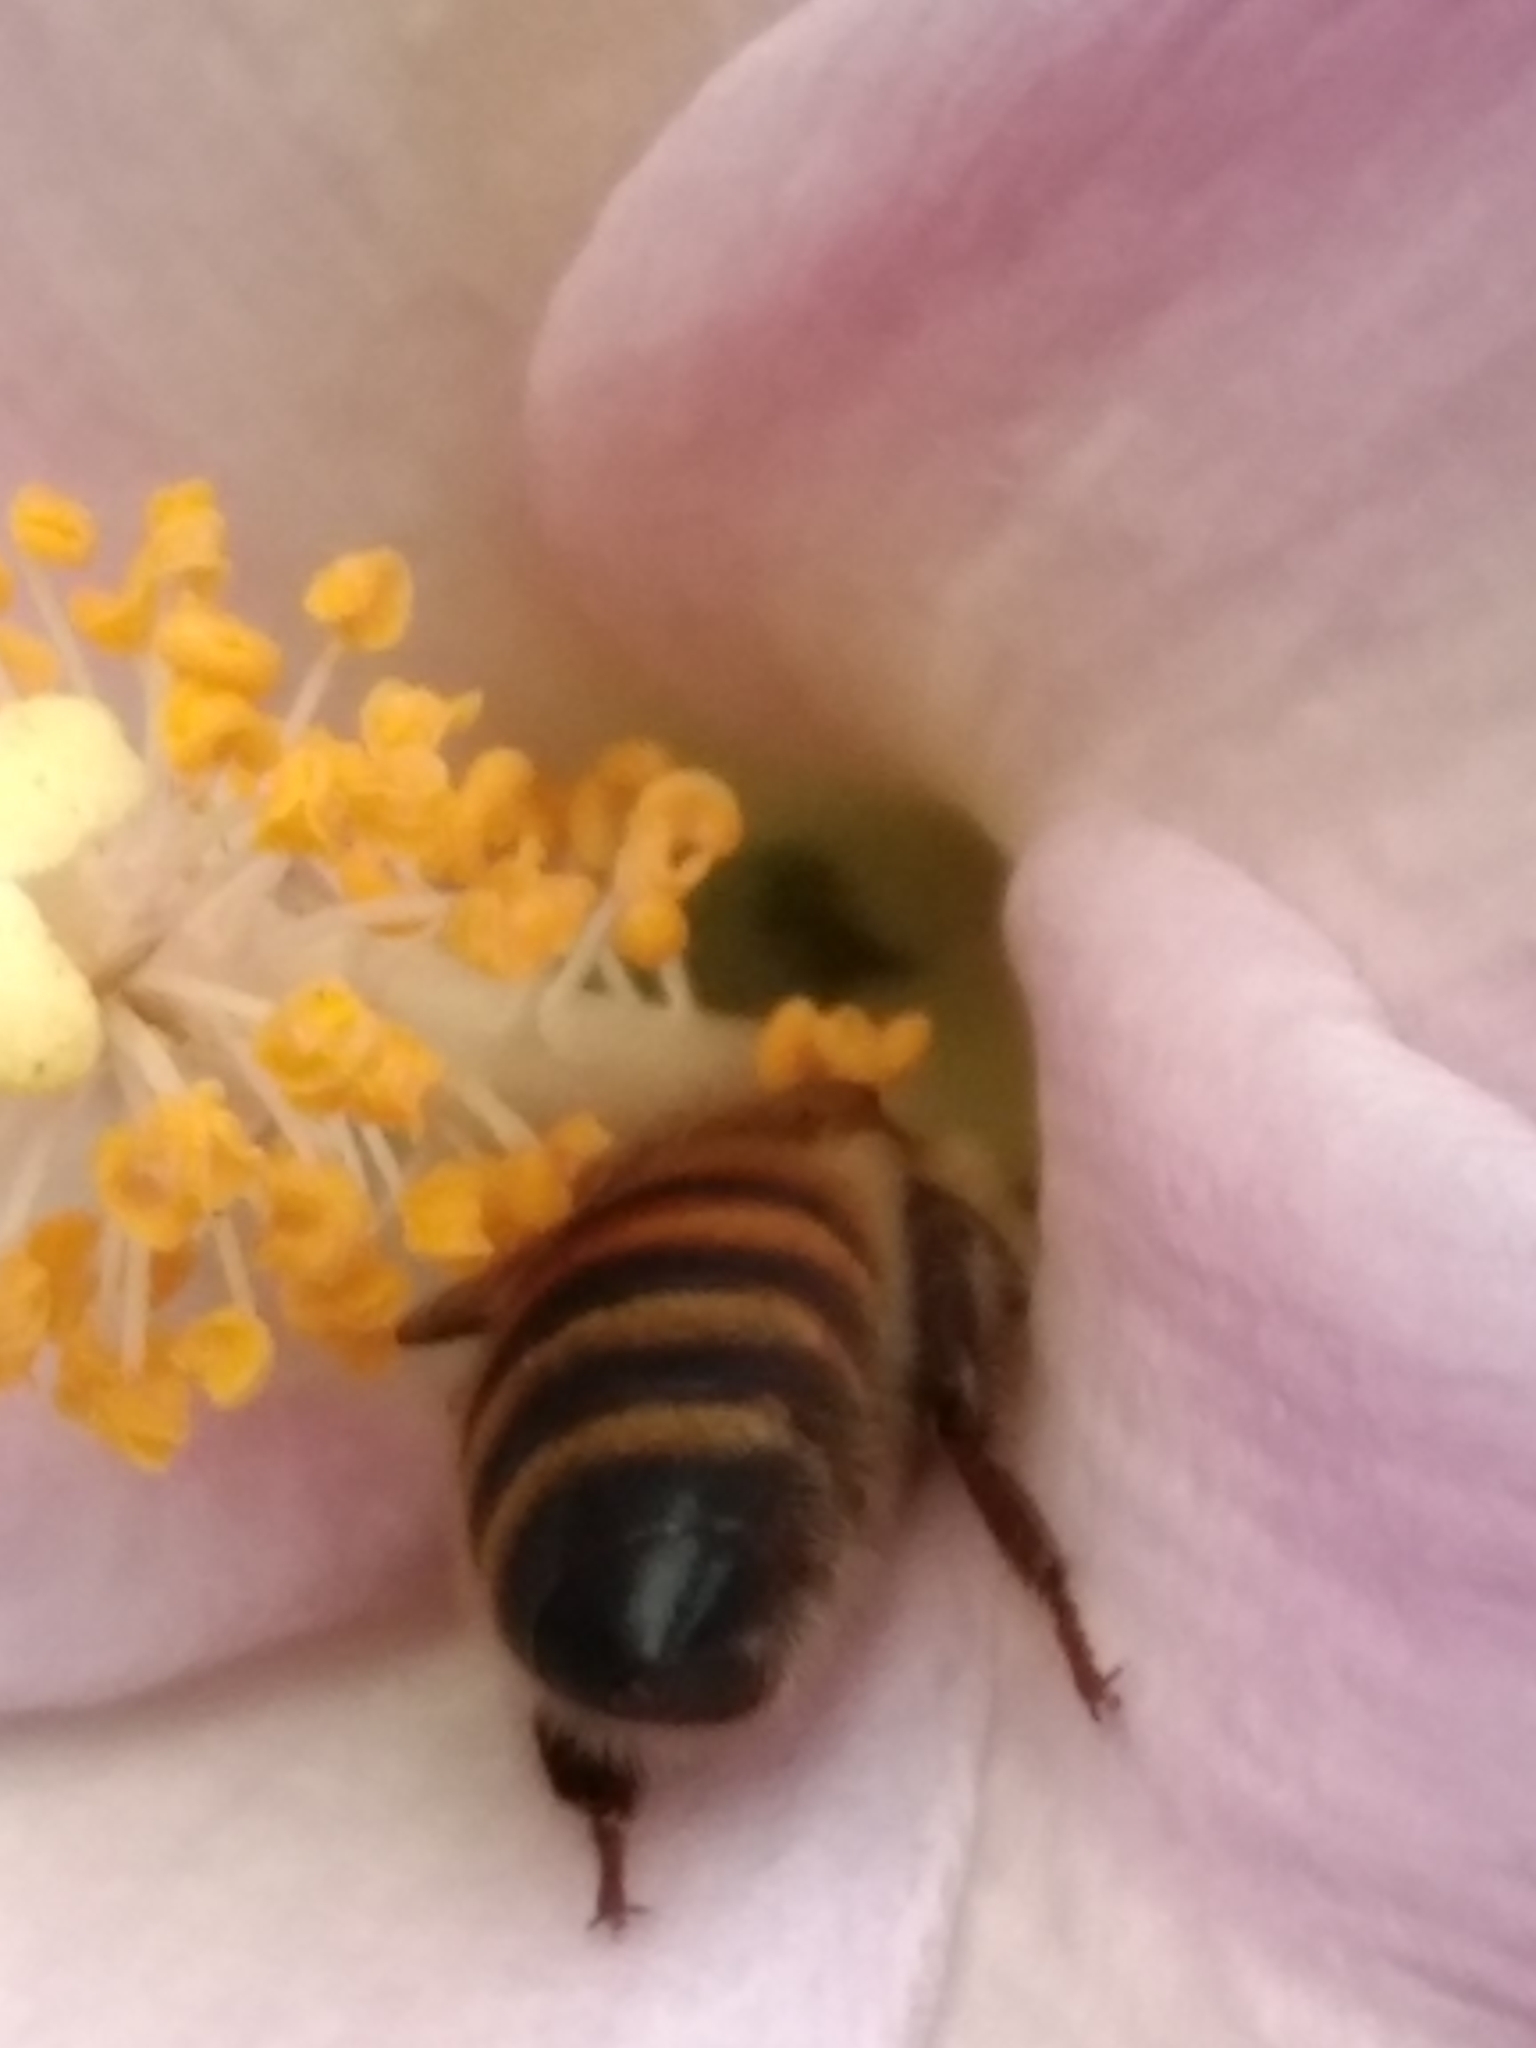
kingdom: Animalia
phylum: Arthropoda
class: Insecta
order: Hymenoptera
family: Apidae
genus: Apis
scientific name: Apis mellifera
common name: Honey bee
